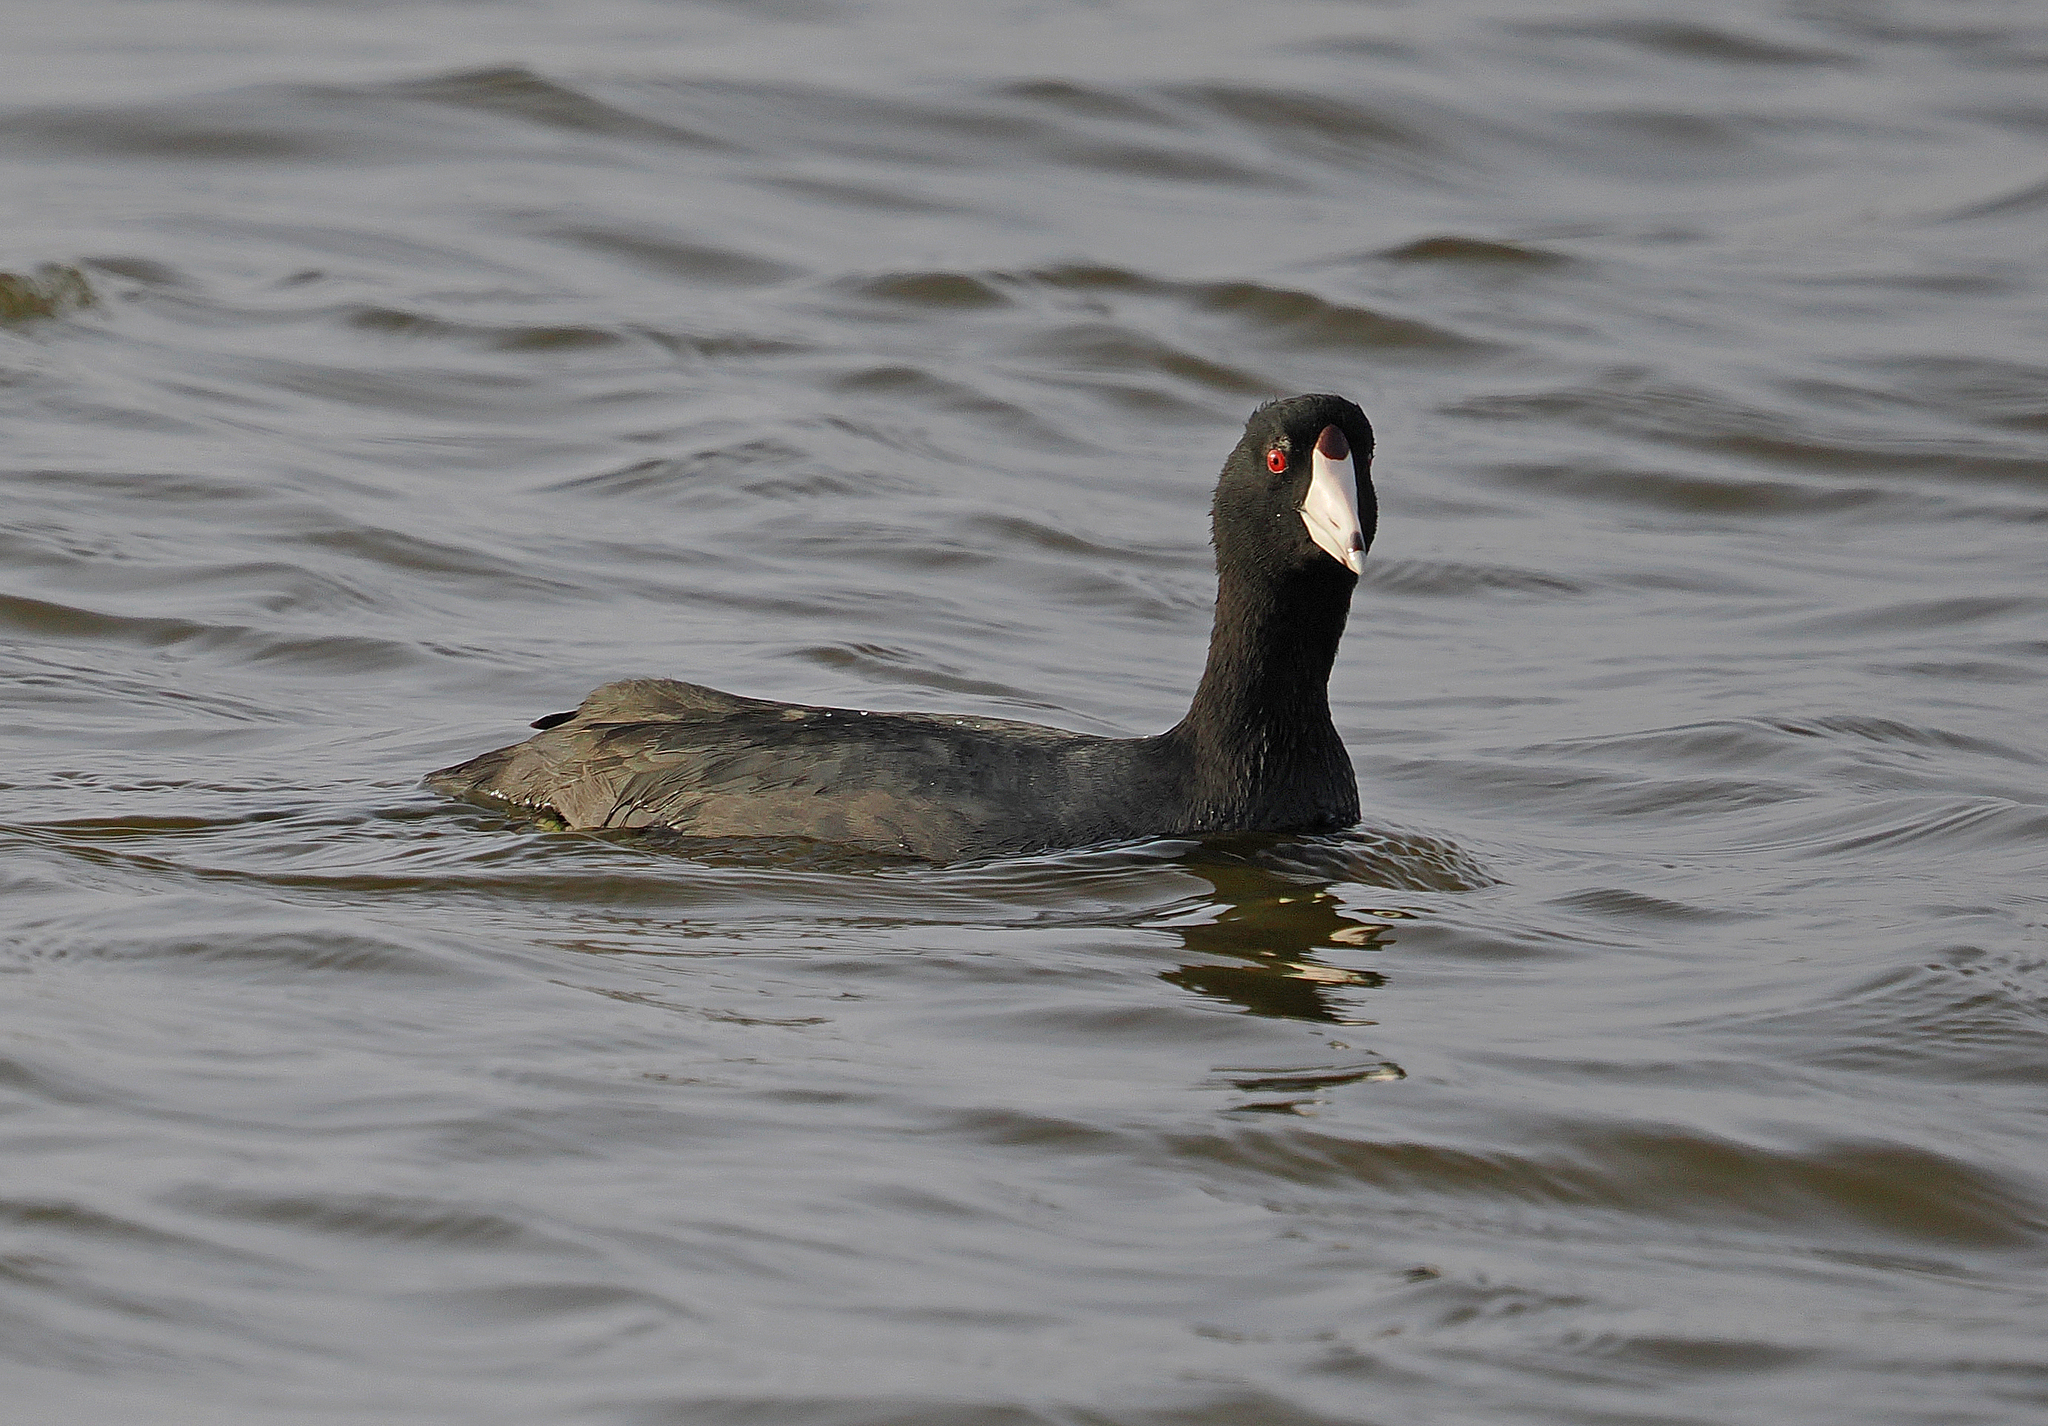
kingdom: Animalia
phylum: Chordata
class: Aves
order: Gruiformes
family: Rallidae
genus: Fulica
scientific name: Fulica americana
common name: American coot
